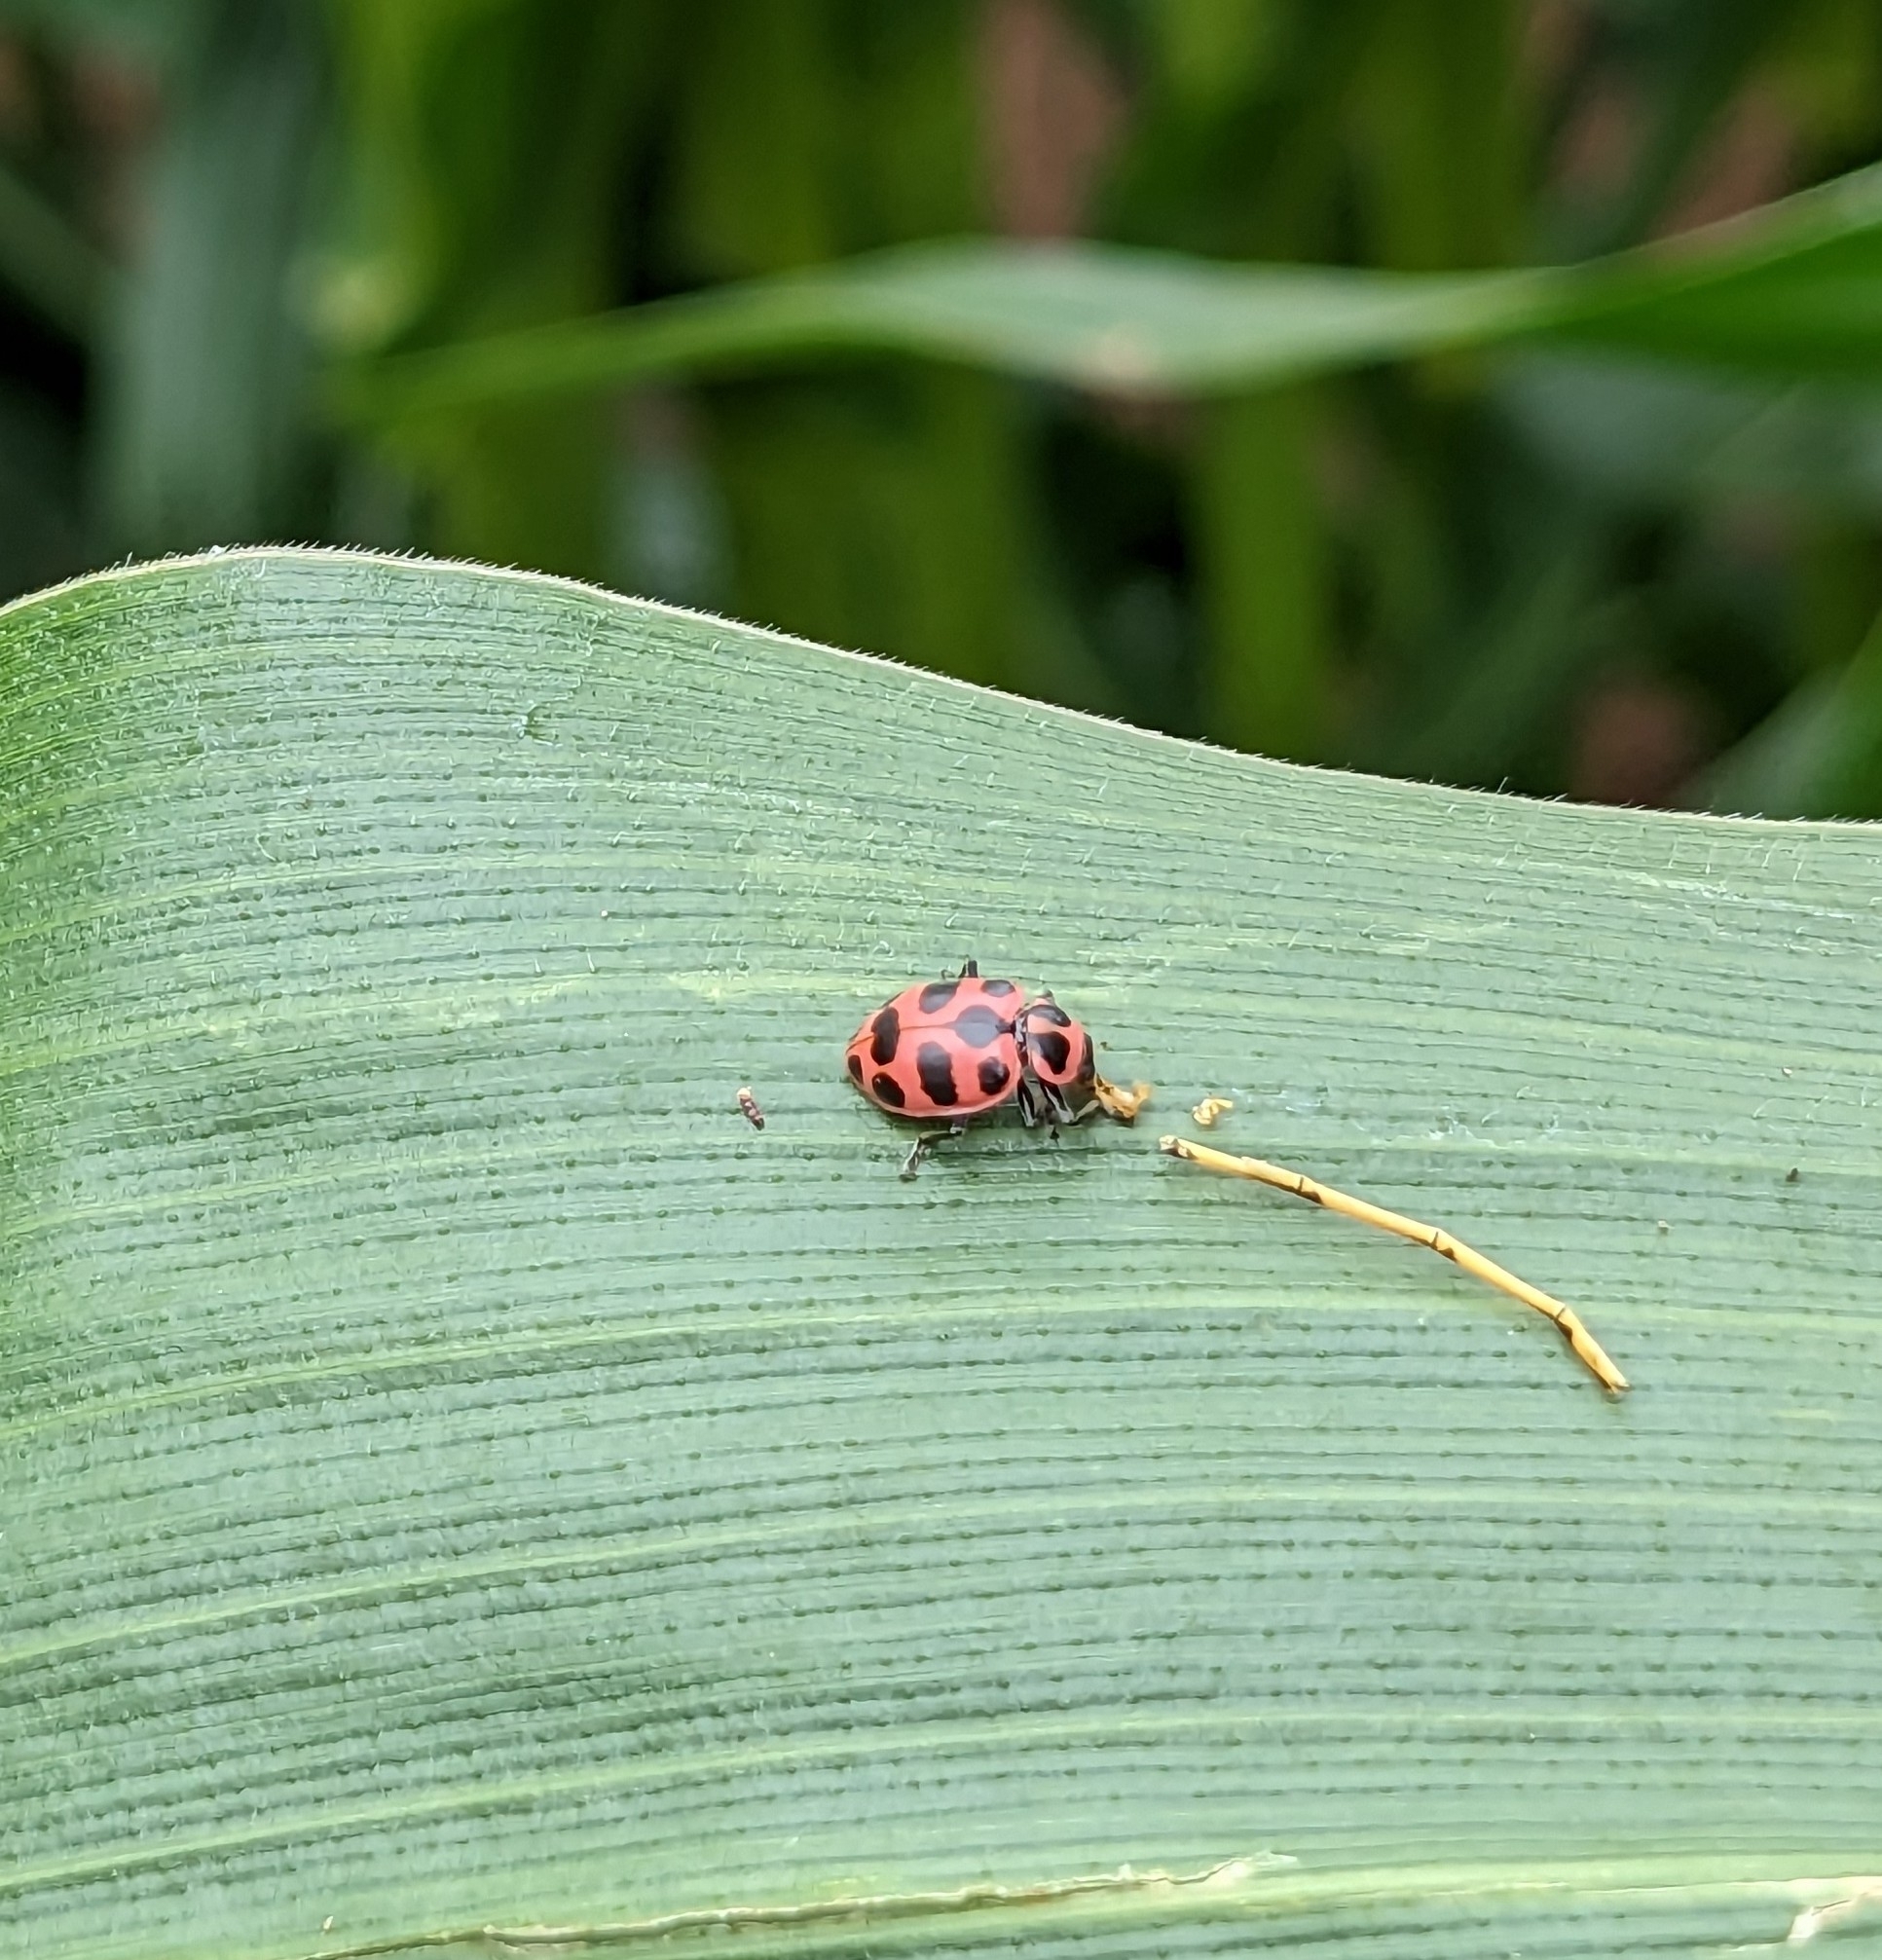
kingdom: Animalia
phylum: Arthropoda
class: Insecta
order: Coleoptera
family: Coccinellidae
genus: Coleomegilla
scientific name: Coleomegilla maculata
